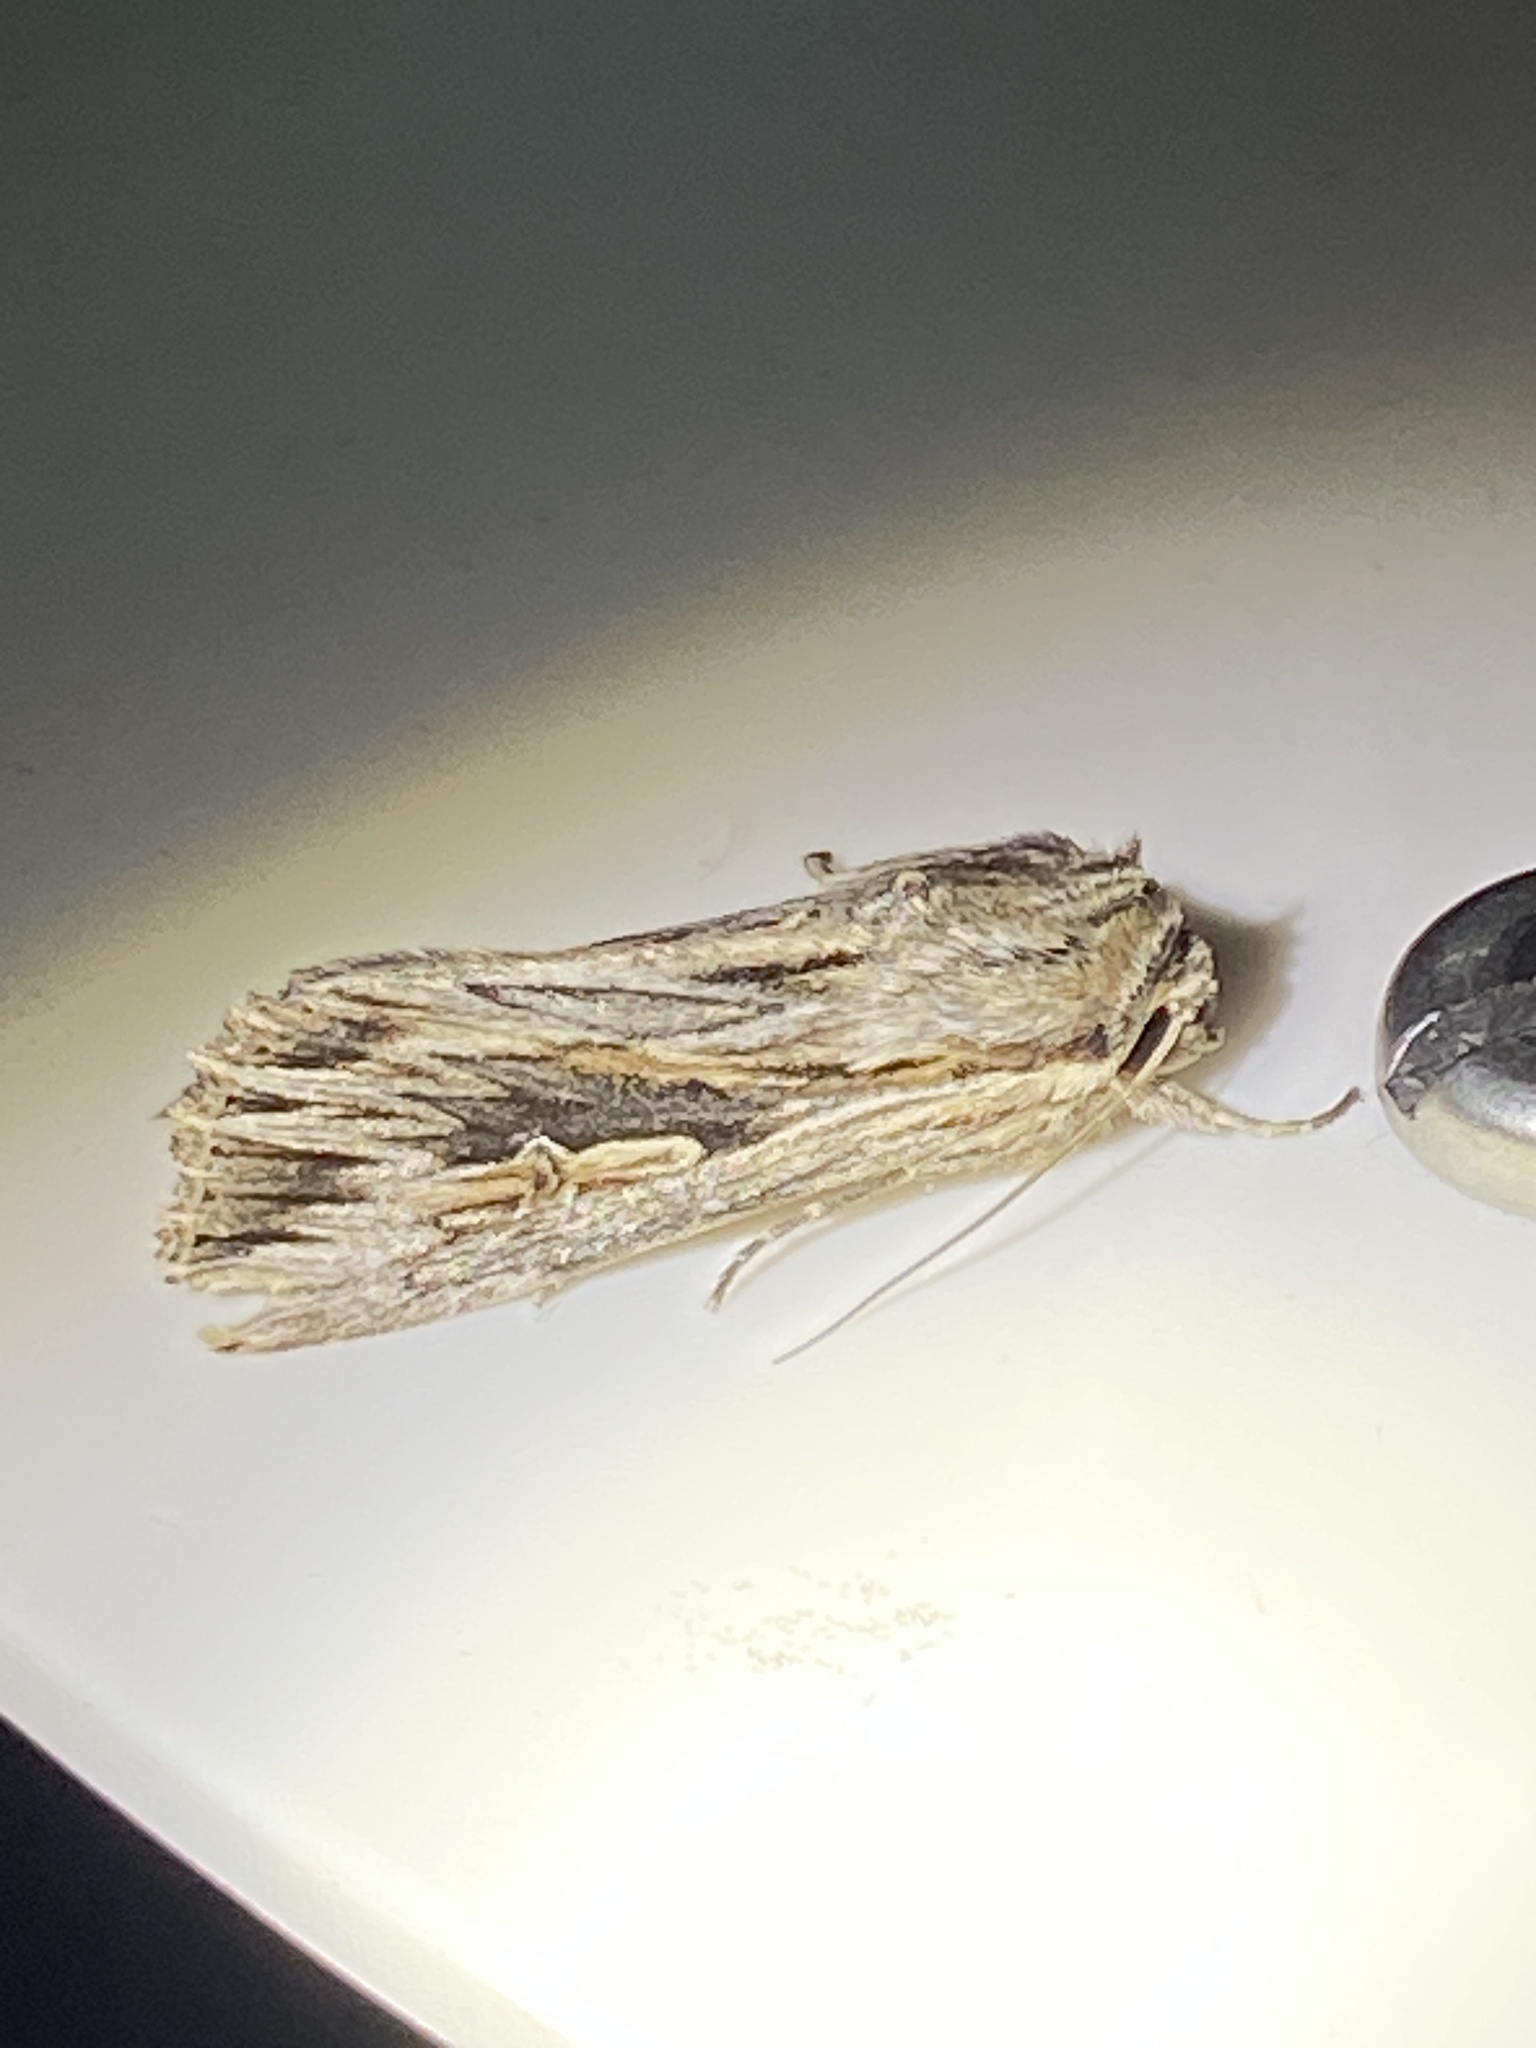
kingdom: Animalia
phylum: Arthropoda
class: Insecta
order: Lepidoptera
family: Noctuidae
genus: Persectania
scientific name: Persectania ewingii
